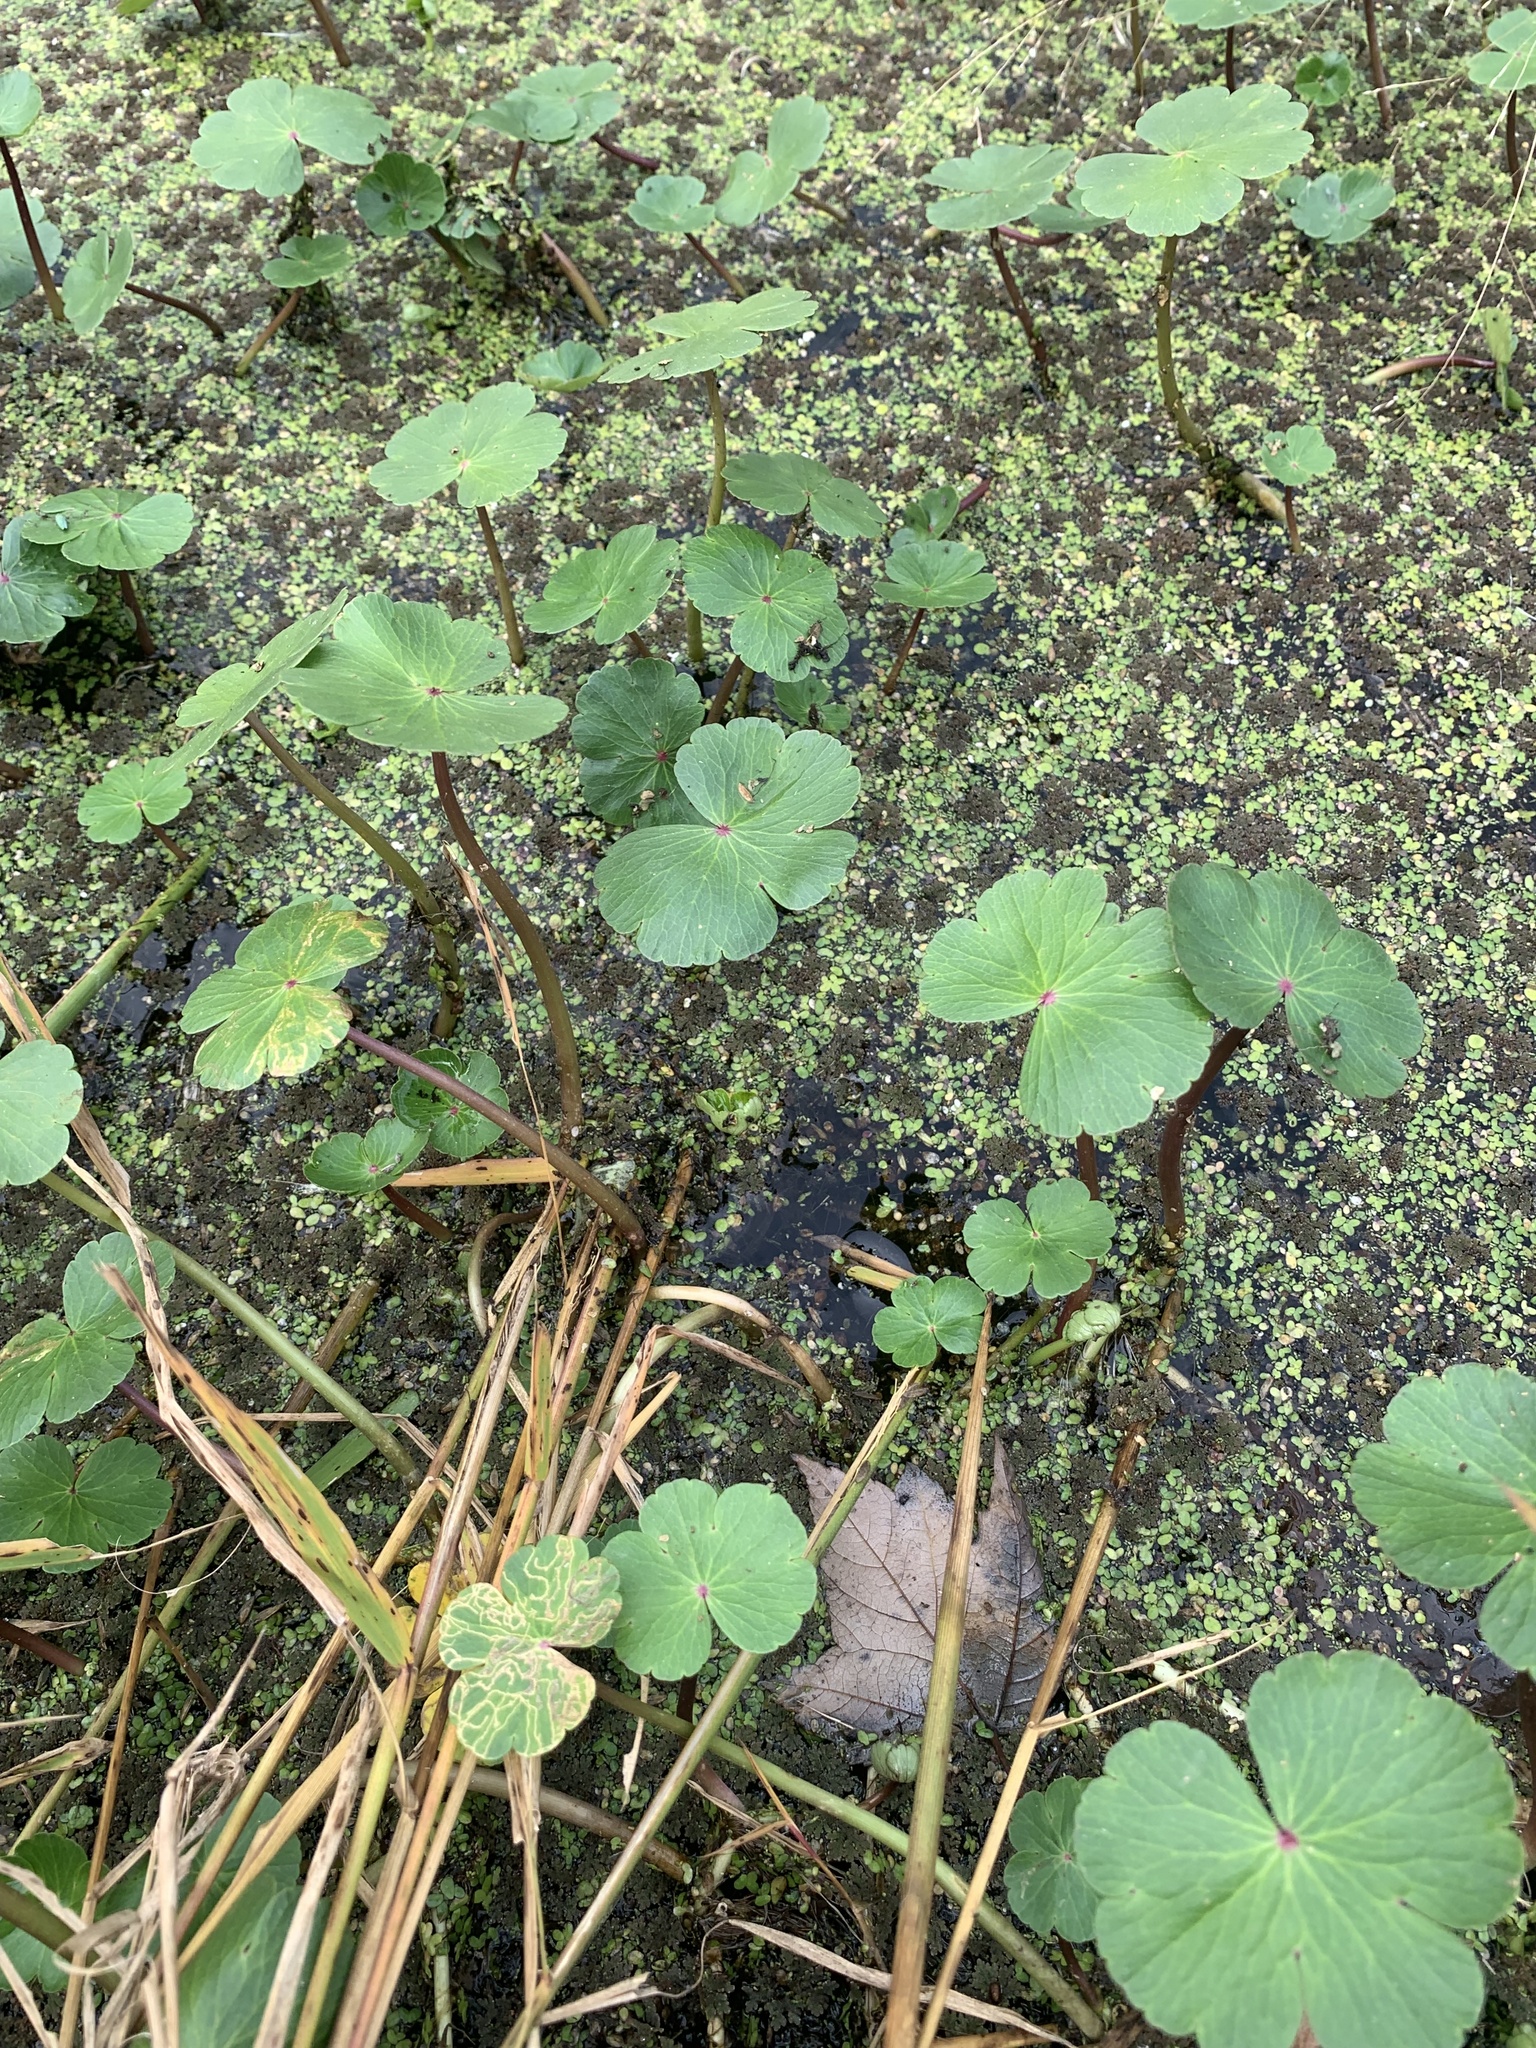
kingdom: Plantae
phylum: Tracheophyta
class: Magnoliopsida
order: Apiales
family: Araliaceae
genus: Hydrocotyle
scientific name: Hydrocotyle ranunculoides
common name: Floating pennywort
